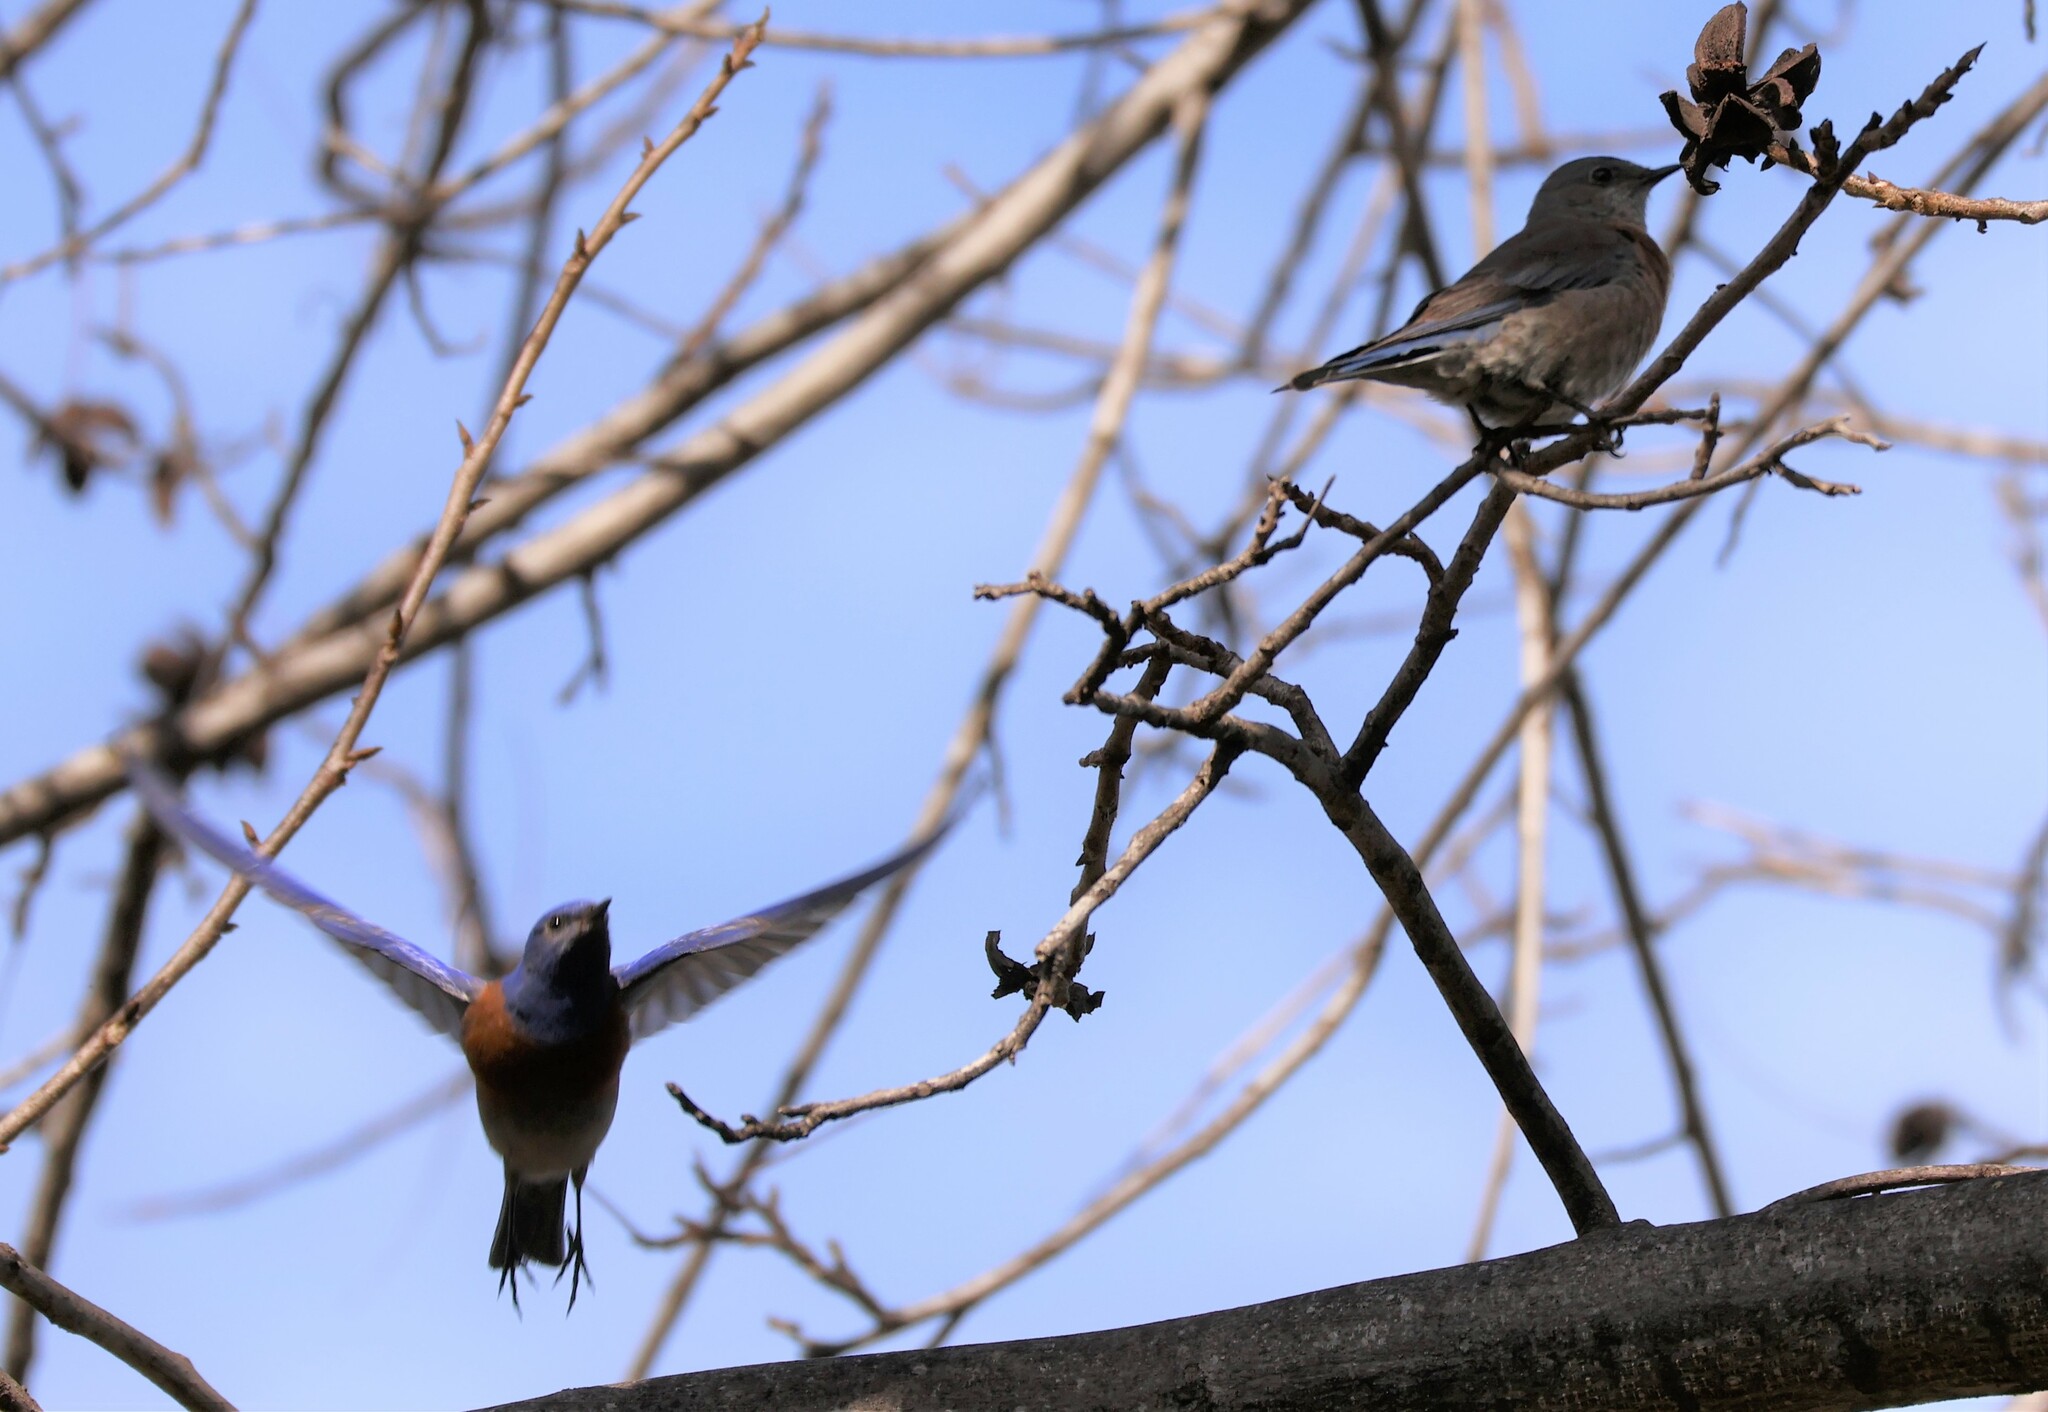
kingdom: Animalia
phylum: Chordata
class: Aves
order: Passeriformes
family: Turdidae
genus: Sialia
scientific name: Sialia mexicana
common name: Western bluebird
